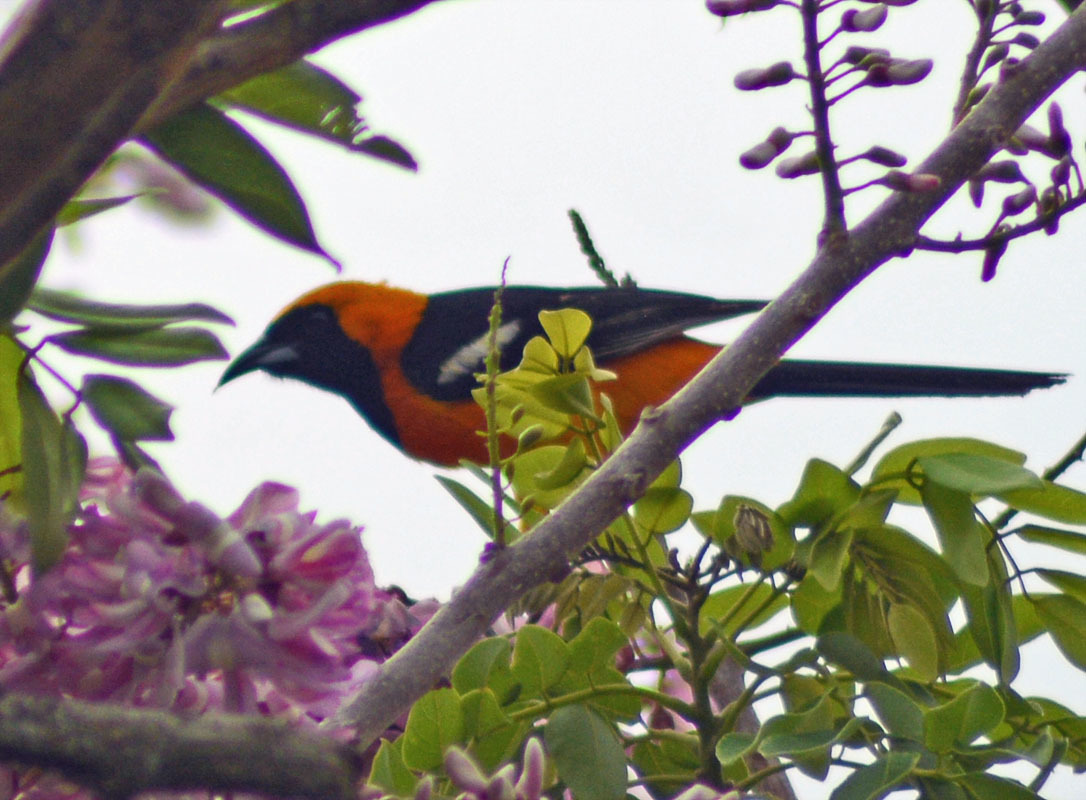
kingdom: Animalia
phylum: Chordata
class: Aves
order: Passeriformes
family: Icteridae
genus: Icterus
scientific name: Icterus cucullatus
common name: Hooded oriole
